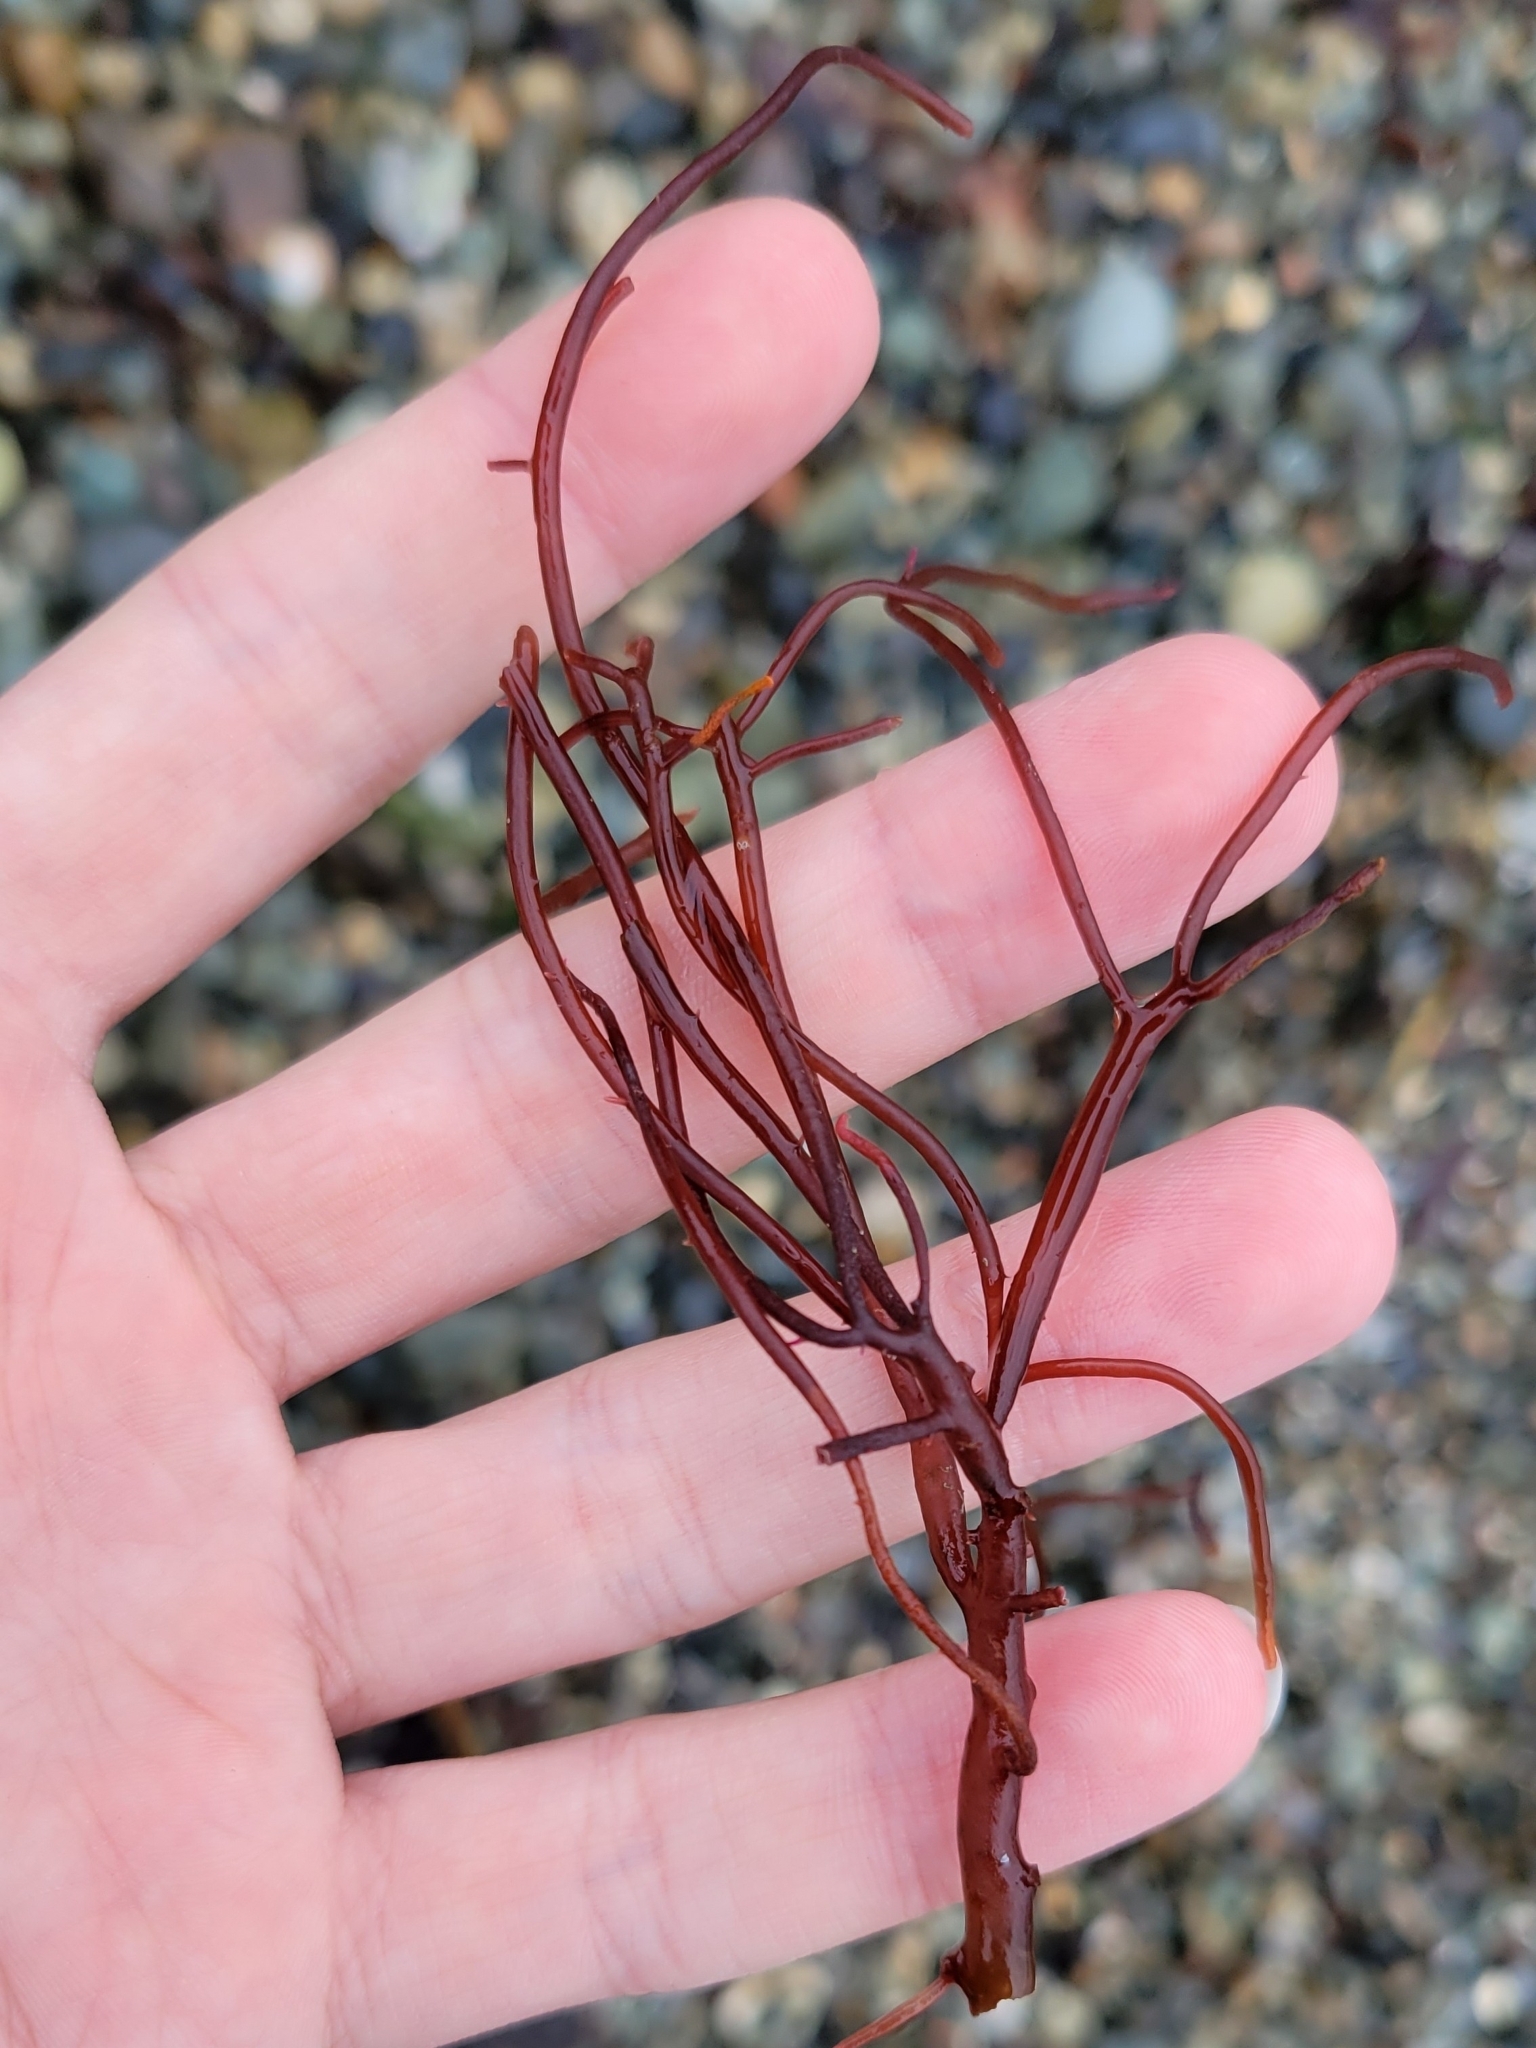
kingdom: Plantae
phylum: Rhodophyta
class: Florideophyceae
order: Gigartinales
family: Solieriaceae
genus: Sarcodiotheca
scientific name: Sarcodiotheca gaudichaudii
